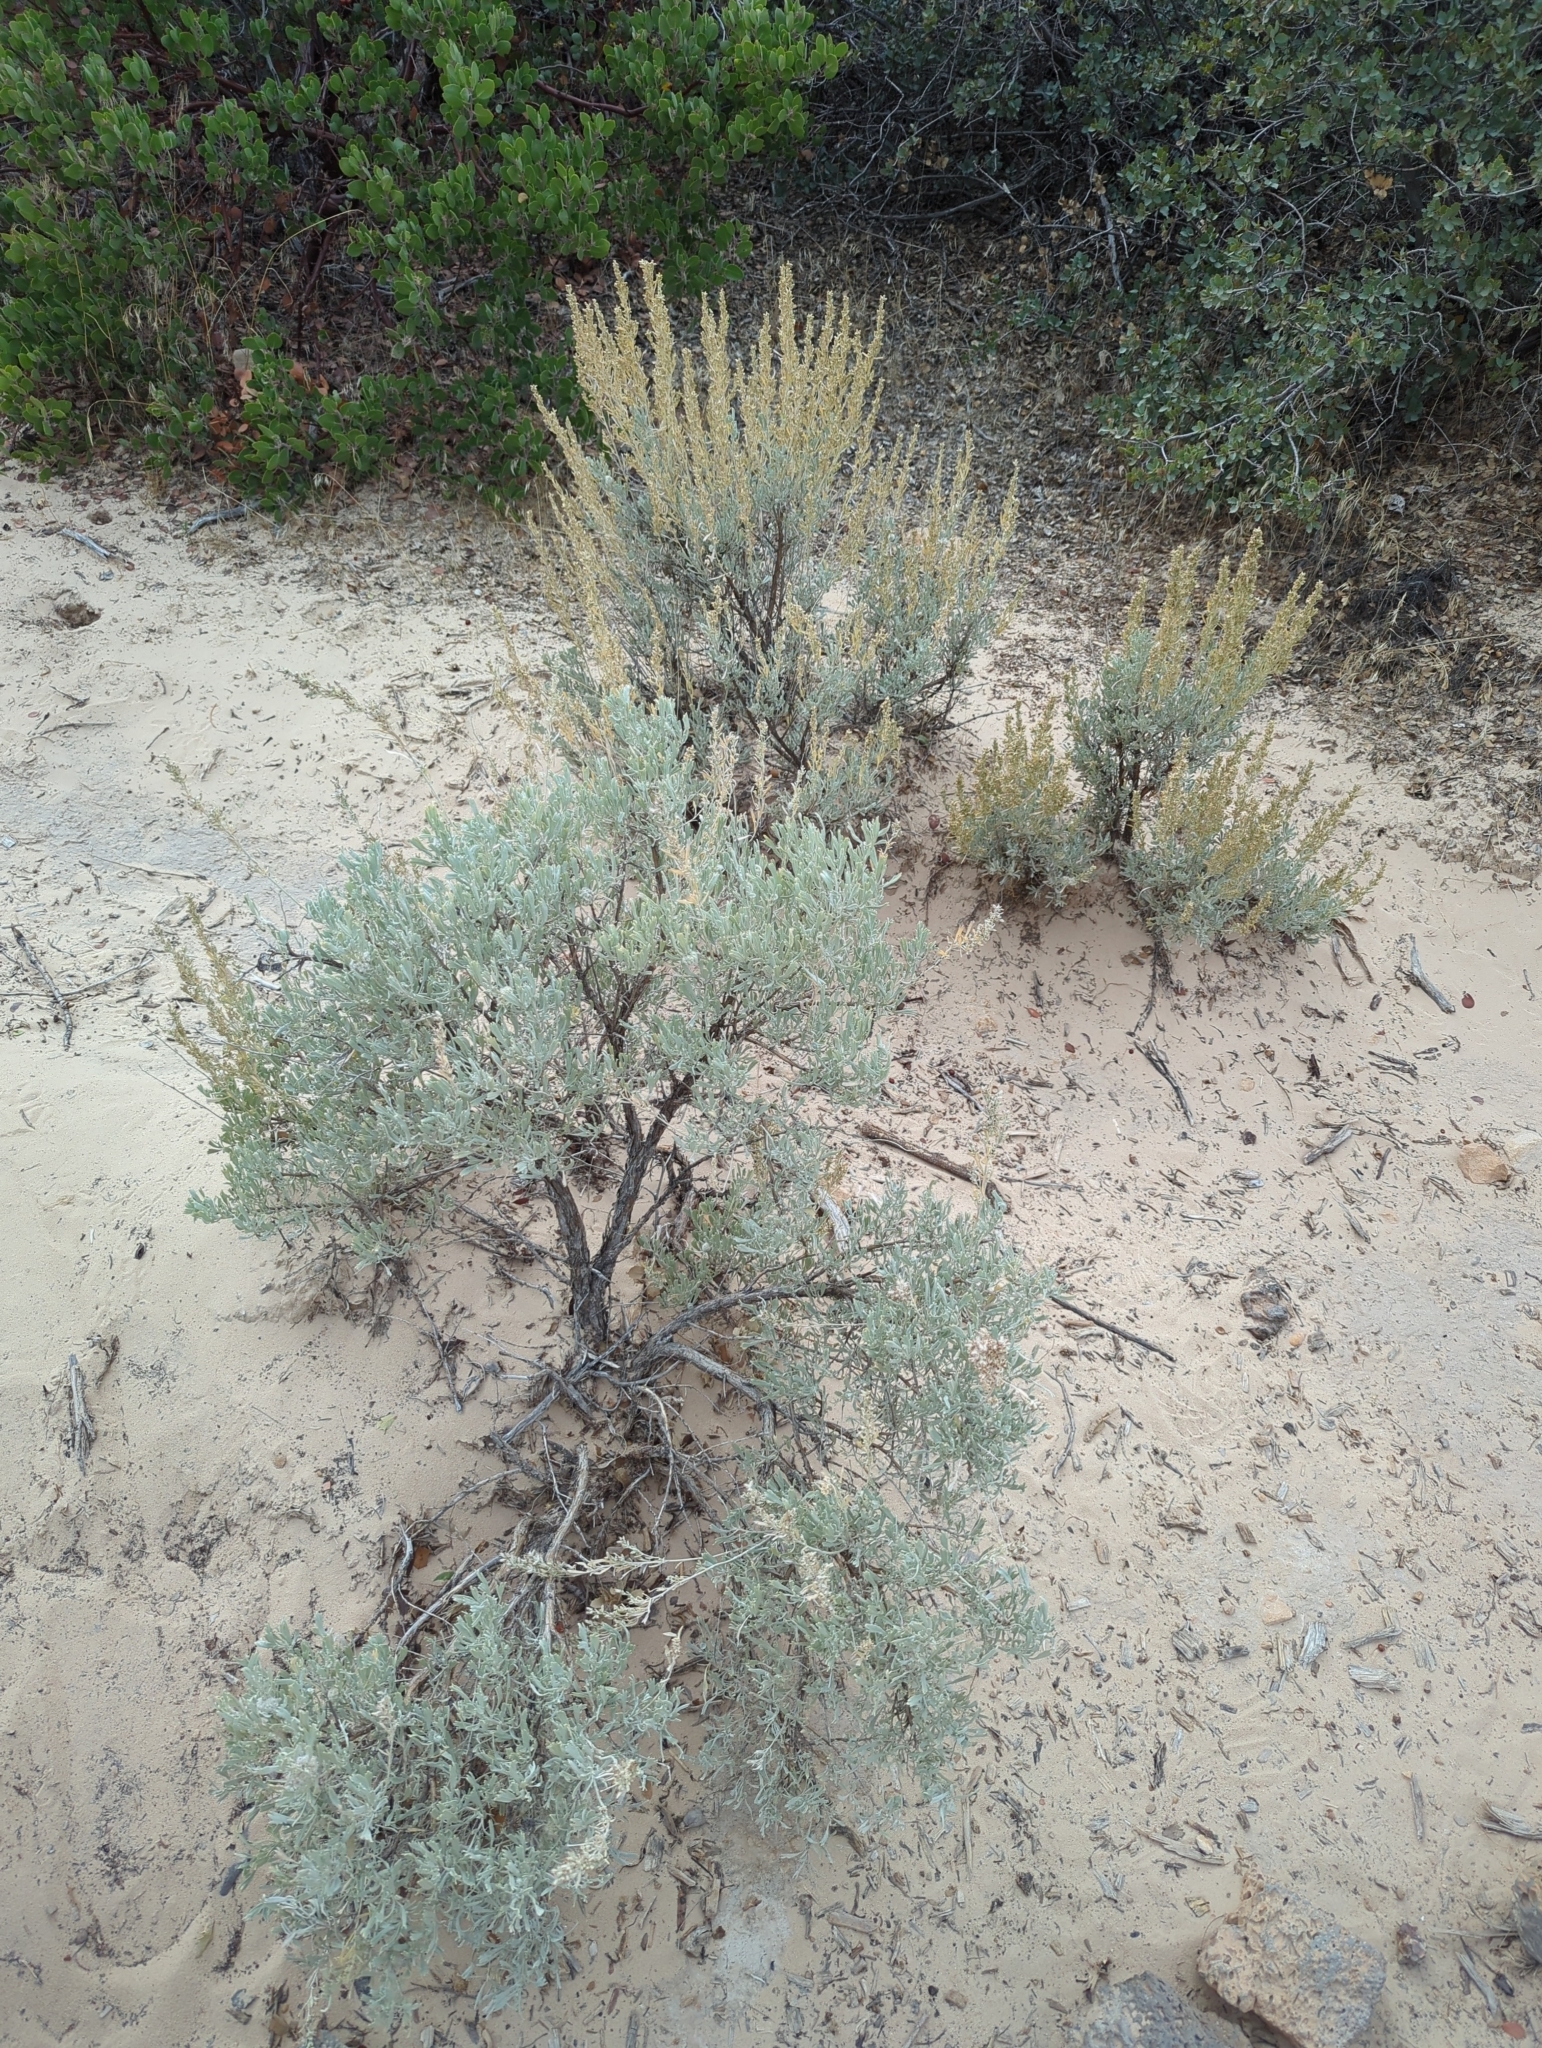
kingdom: Plantae
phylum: Tracheophyta
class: Magnoliopsida
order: Asterales
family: Asteraceae
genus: Artemisia
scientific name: Artemisia tridentata
